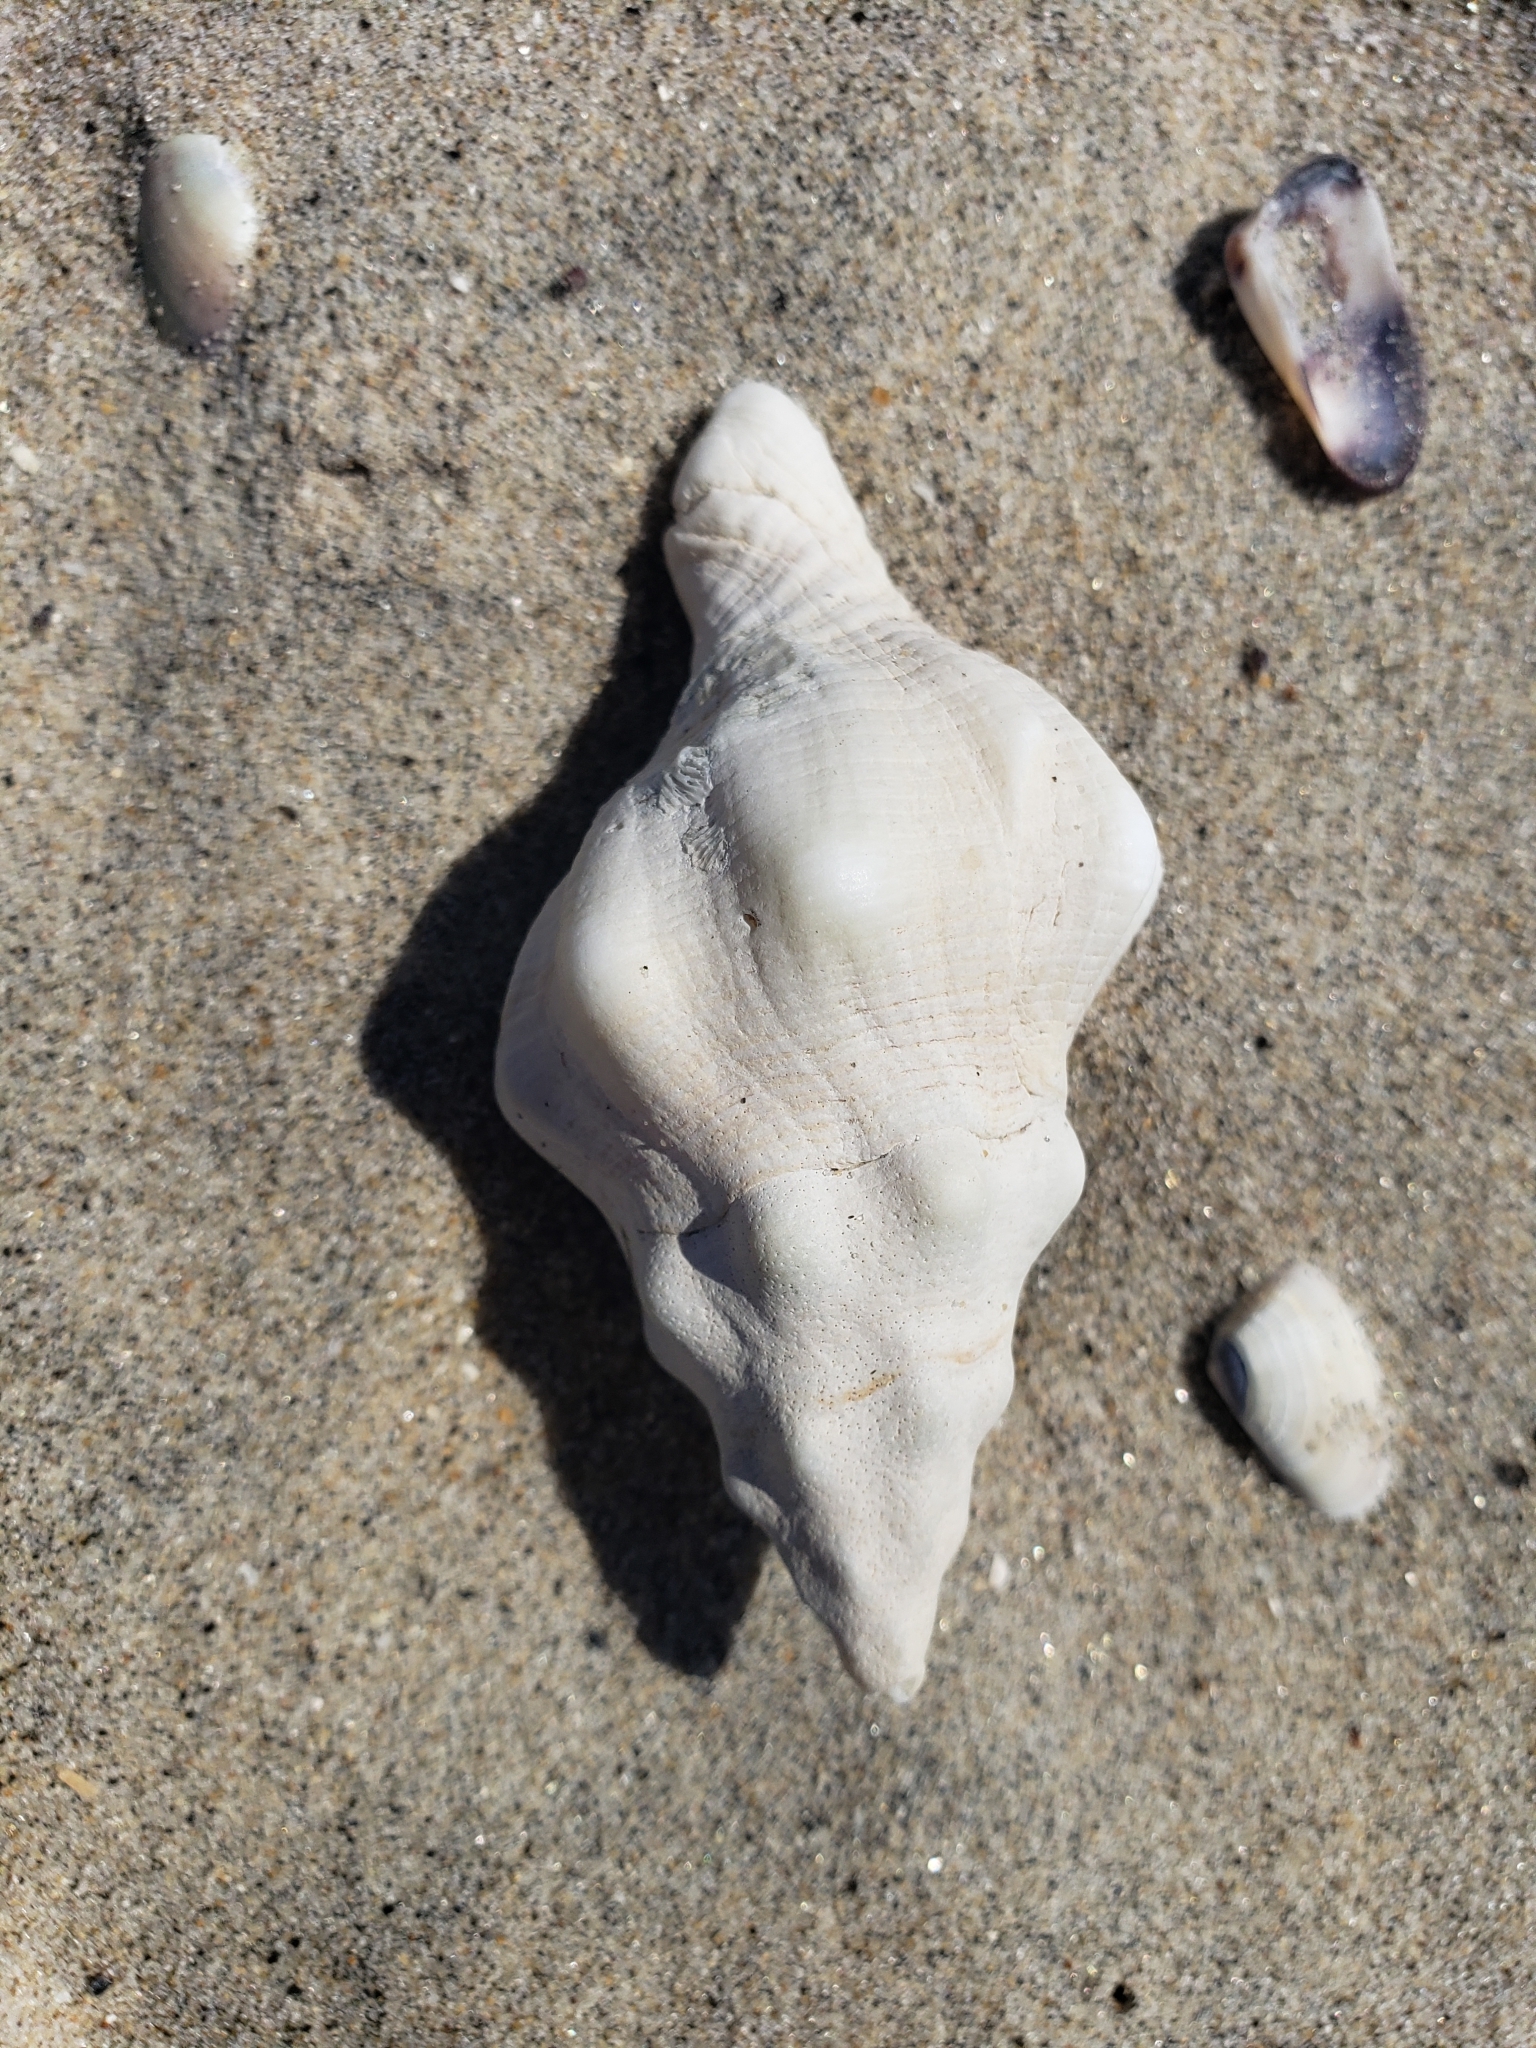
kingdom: Animalia
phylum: Mollusca
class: Gastropoda
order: Neogastropoda
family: Austrosiphonidae
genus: Kelletia
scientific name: Kelletia kelletii
